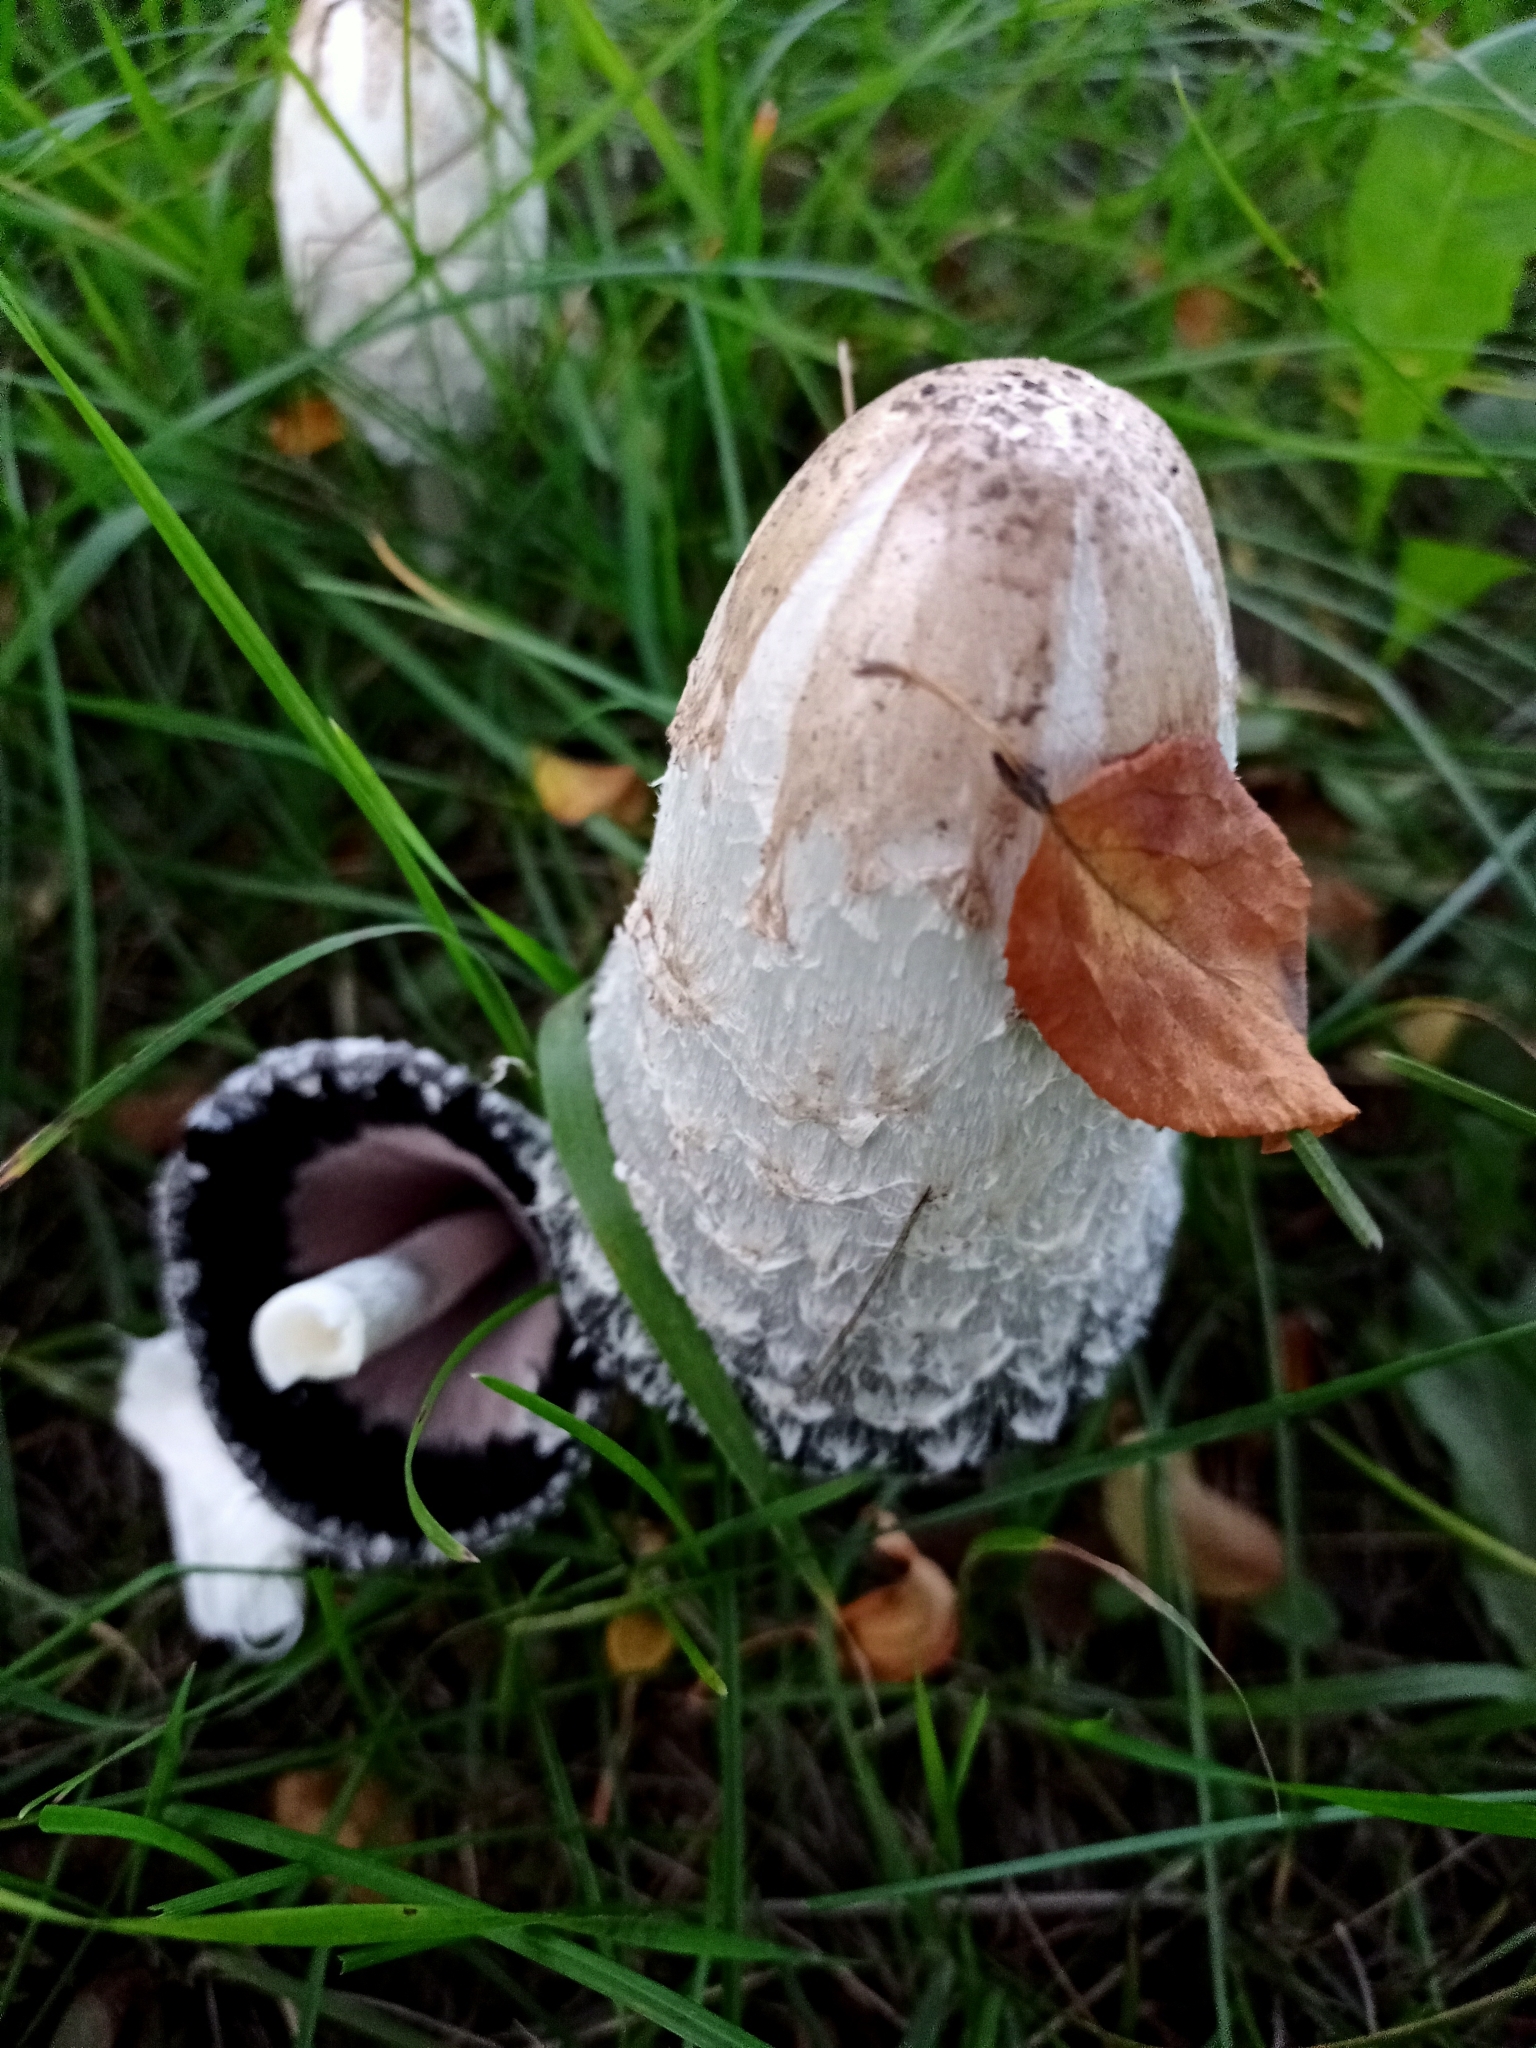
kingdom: Fungi
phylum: Basidiomycota
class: Agaricomycetes
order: Agaricales
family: Agaricaceae
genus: Coprinus
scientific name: Coprinus comatus
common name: Lawyer's wig
